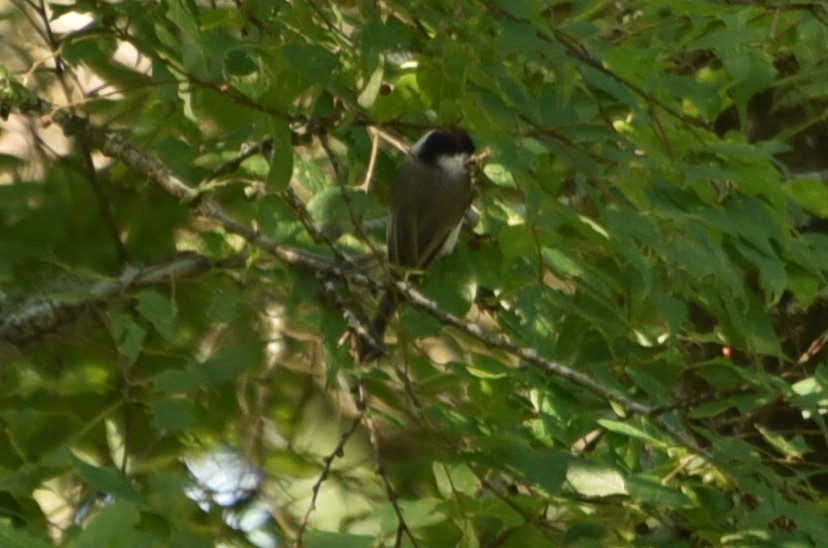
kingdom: Animalia
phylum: Chordata
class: Aves
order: Passeriformes
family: Paridae
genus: Poecile
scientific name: Poecile carolinensis
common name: Carolina chickadee
